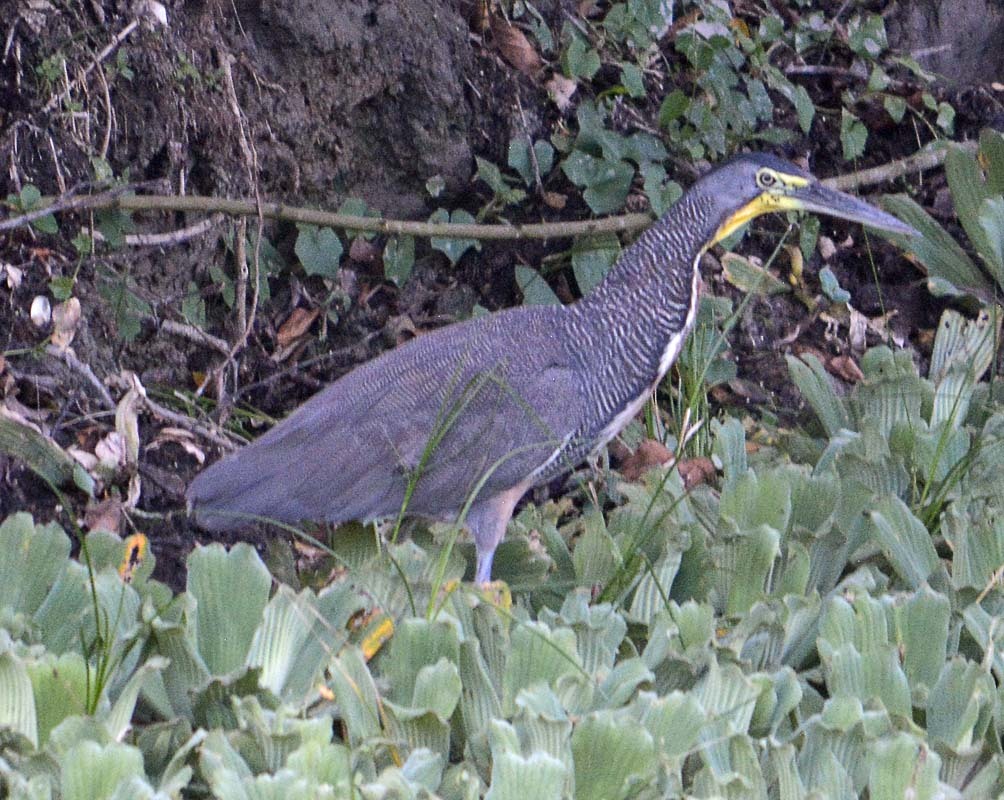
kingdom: Animalia
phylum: Chordata
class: Aves
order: Pelecaniformes
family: Ardeidae
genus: Tigrisoma
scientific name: Tigrisoma mexicanum
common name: Bare-throated tiger-heron
